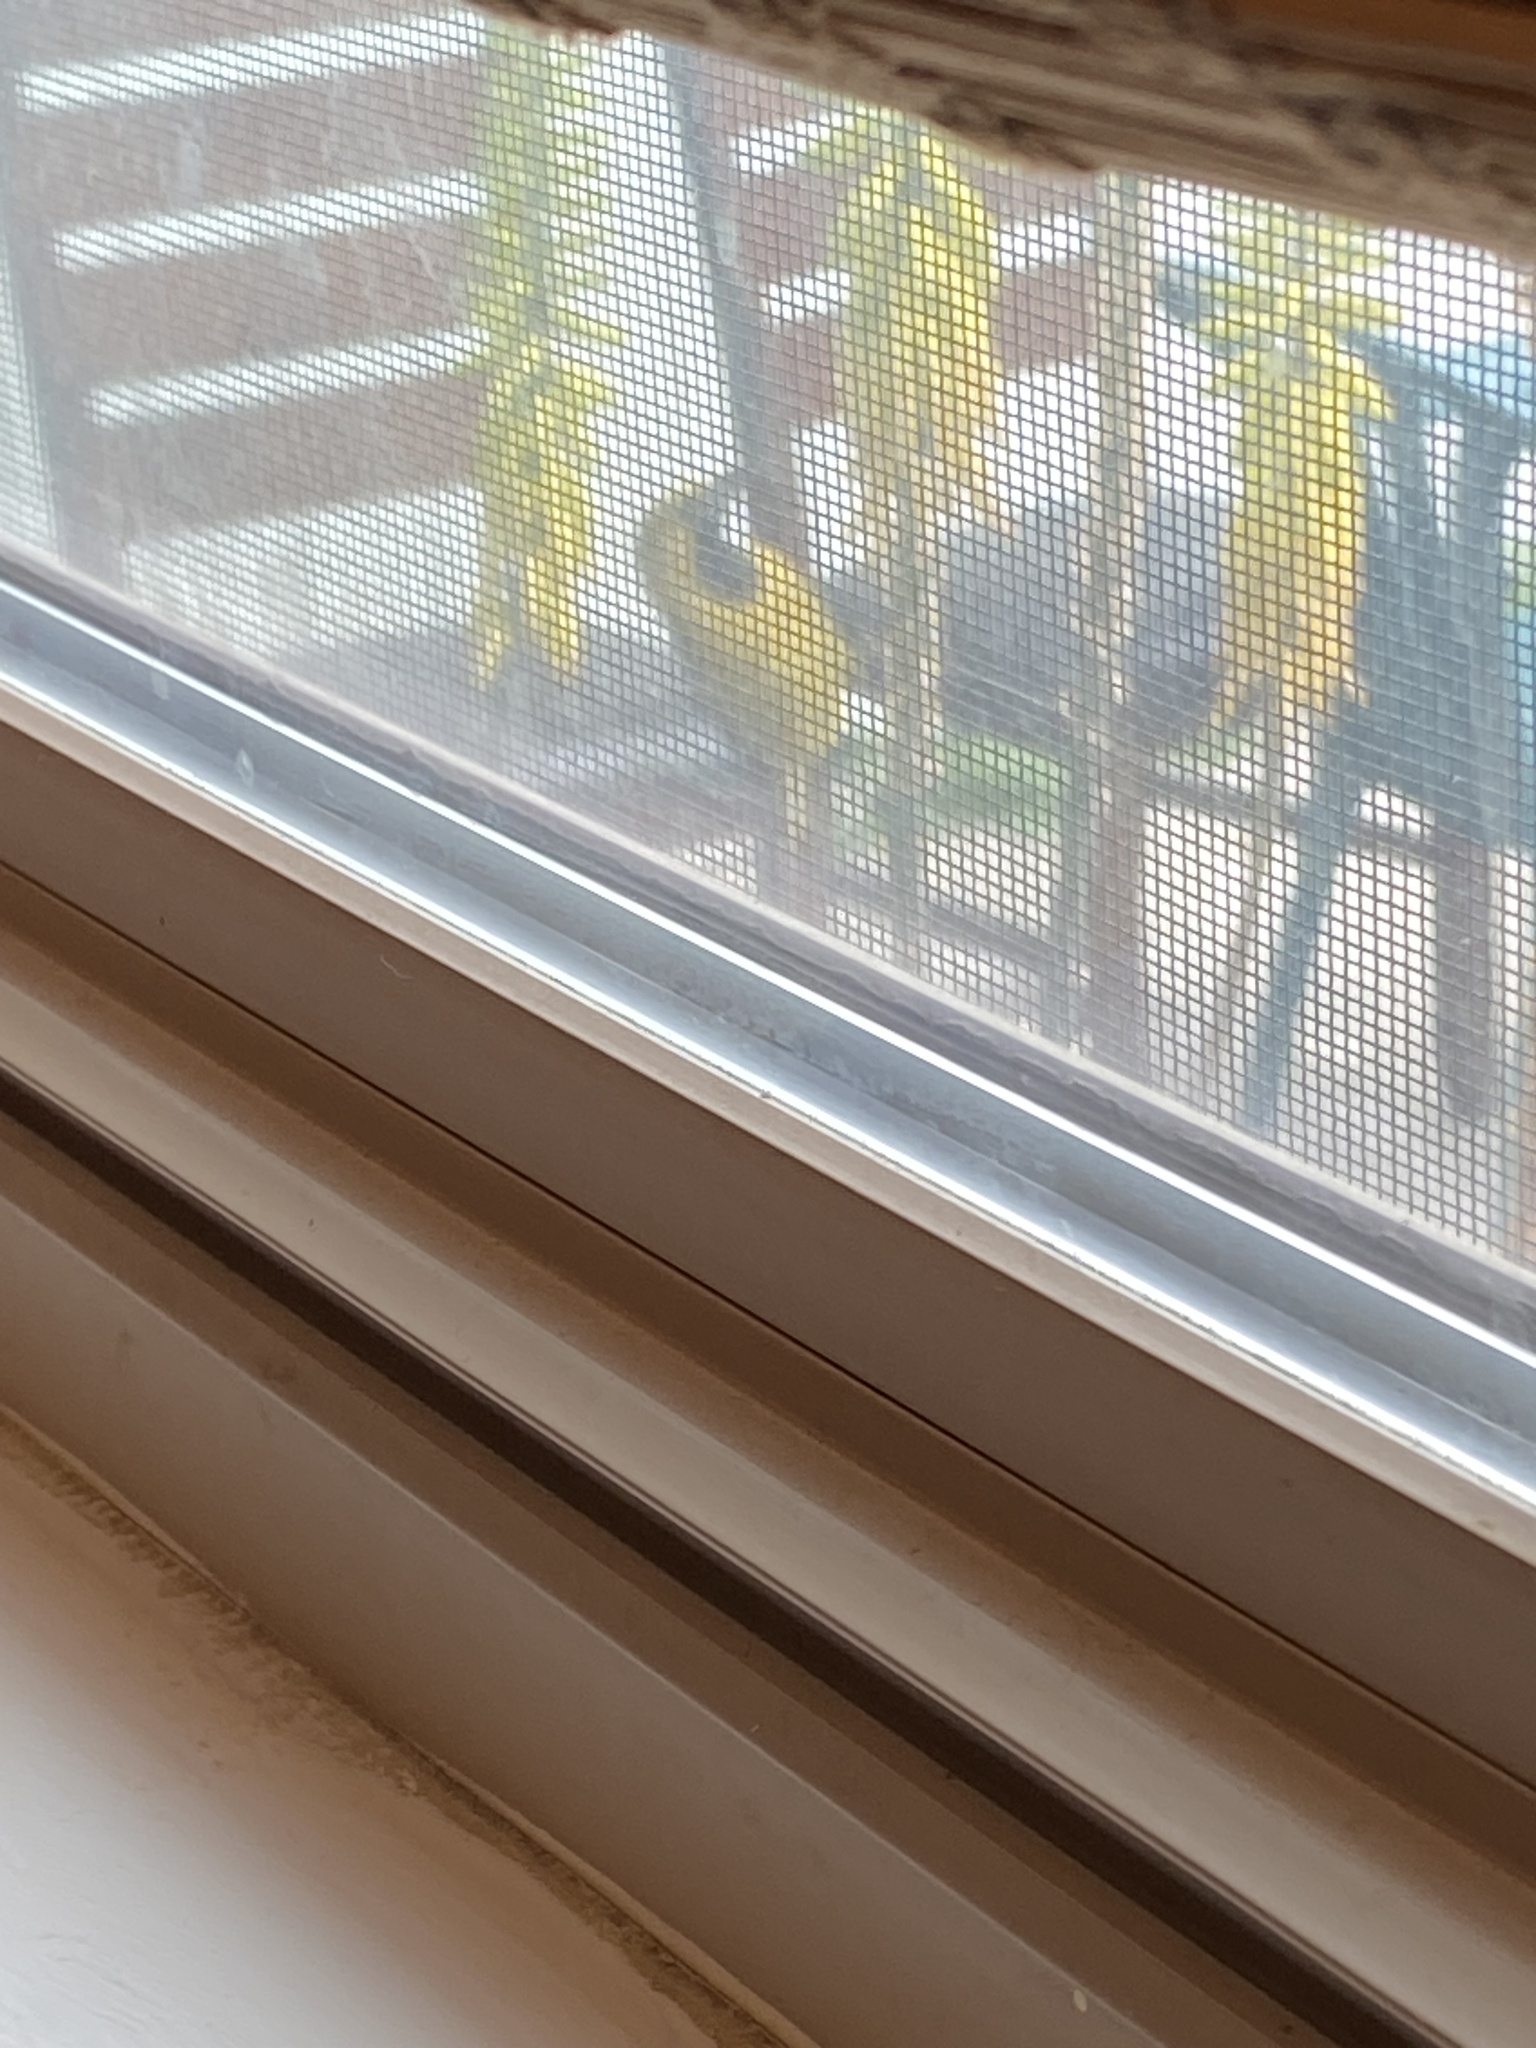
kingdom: Animalia
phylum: Chordata
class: Aves
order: Passeriformes
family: Icteridae
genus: Icterus
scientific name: Icterus cucullatus
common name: Hooded oriole
